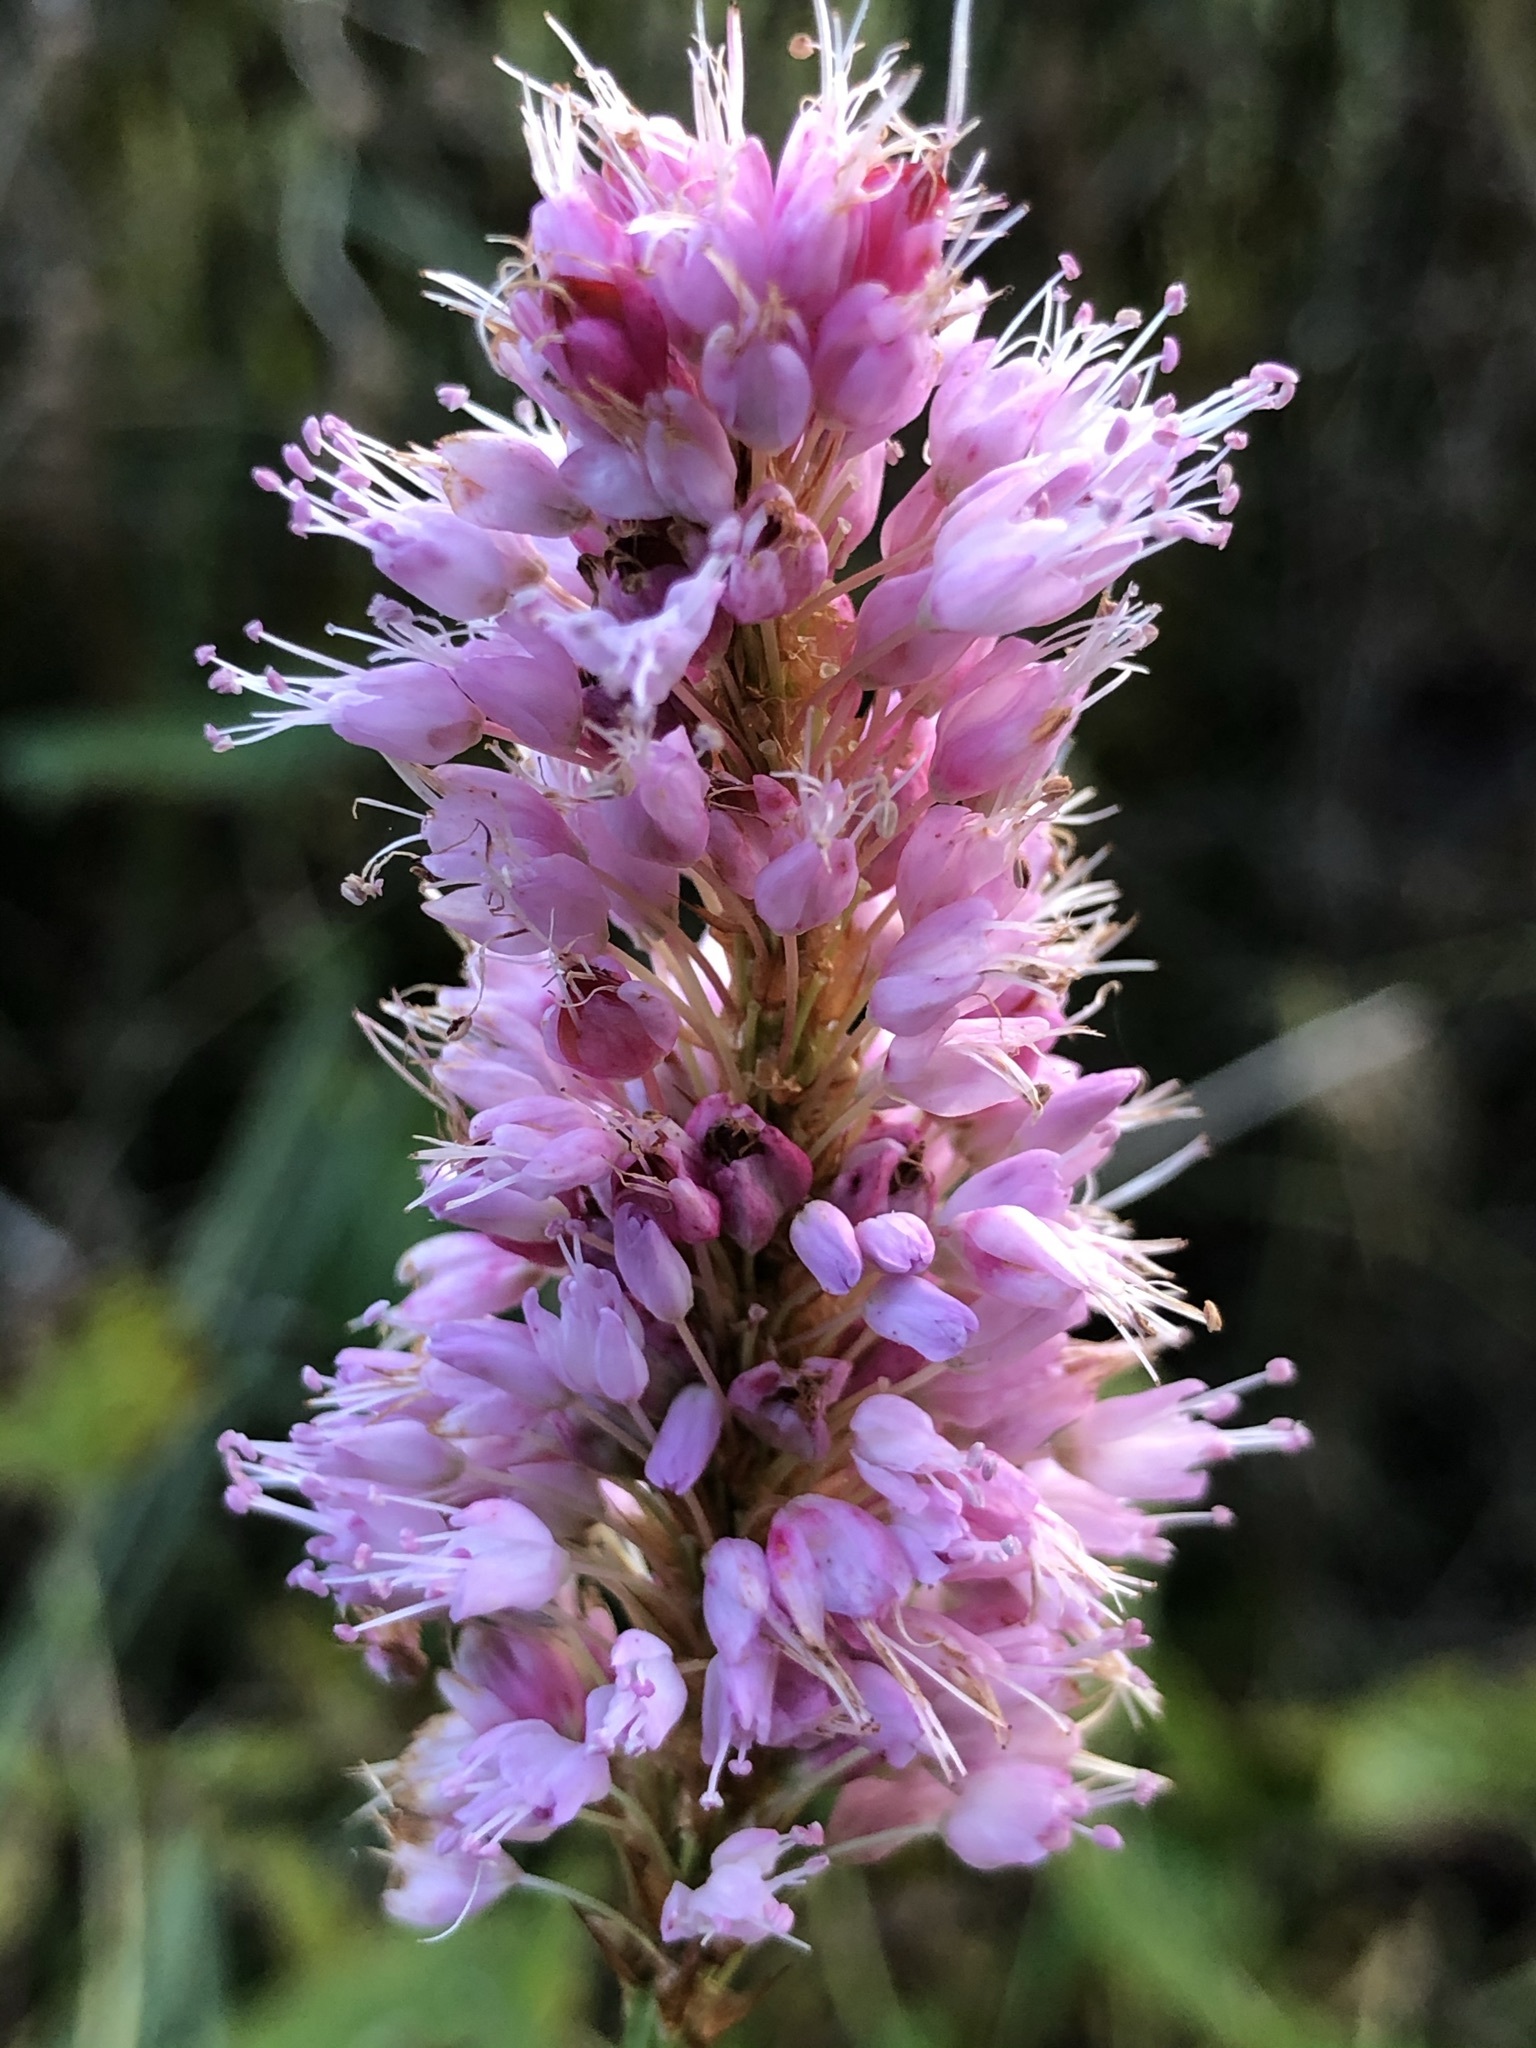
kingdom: Plantae
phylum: Tracheophyta
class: Magnoliopsida
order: Caryophyllales
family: Polygonaceae
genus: Bistorta
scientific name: Bistorta officinalis
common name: Common bistort
